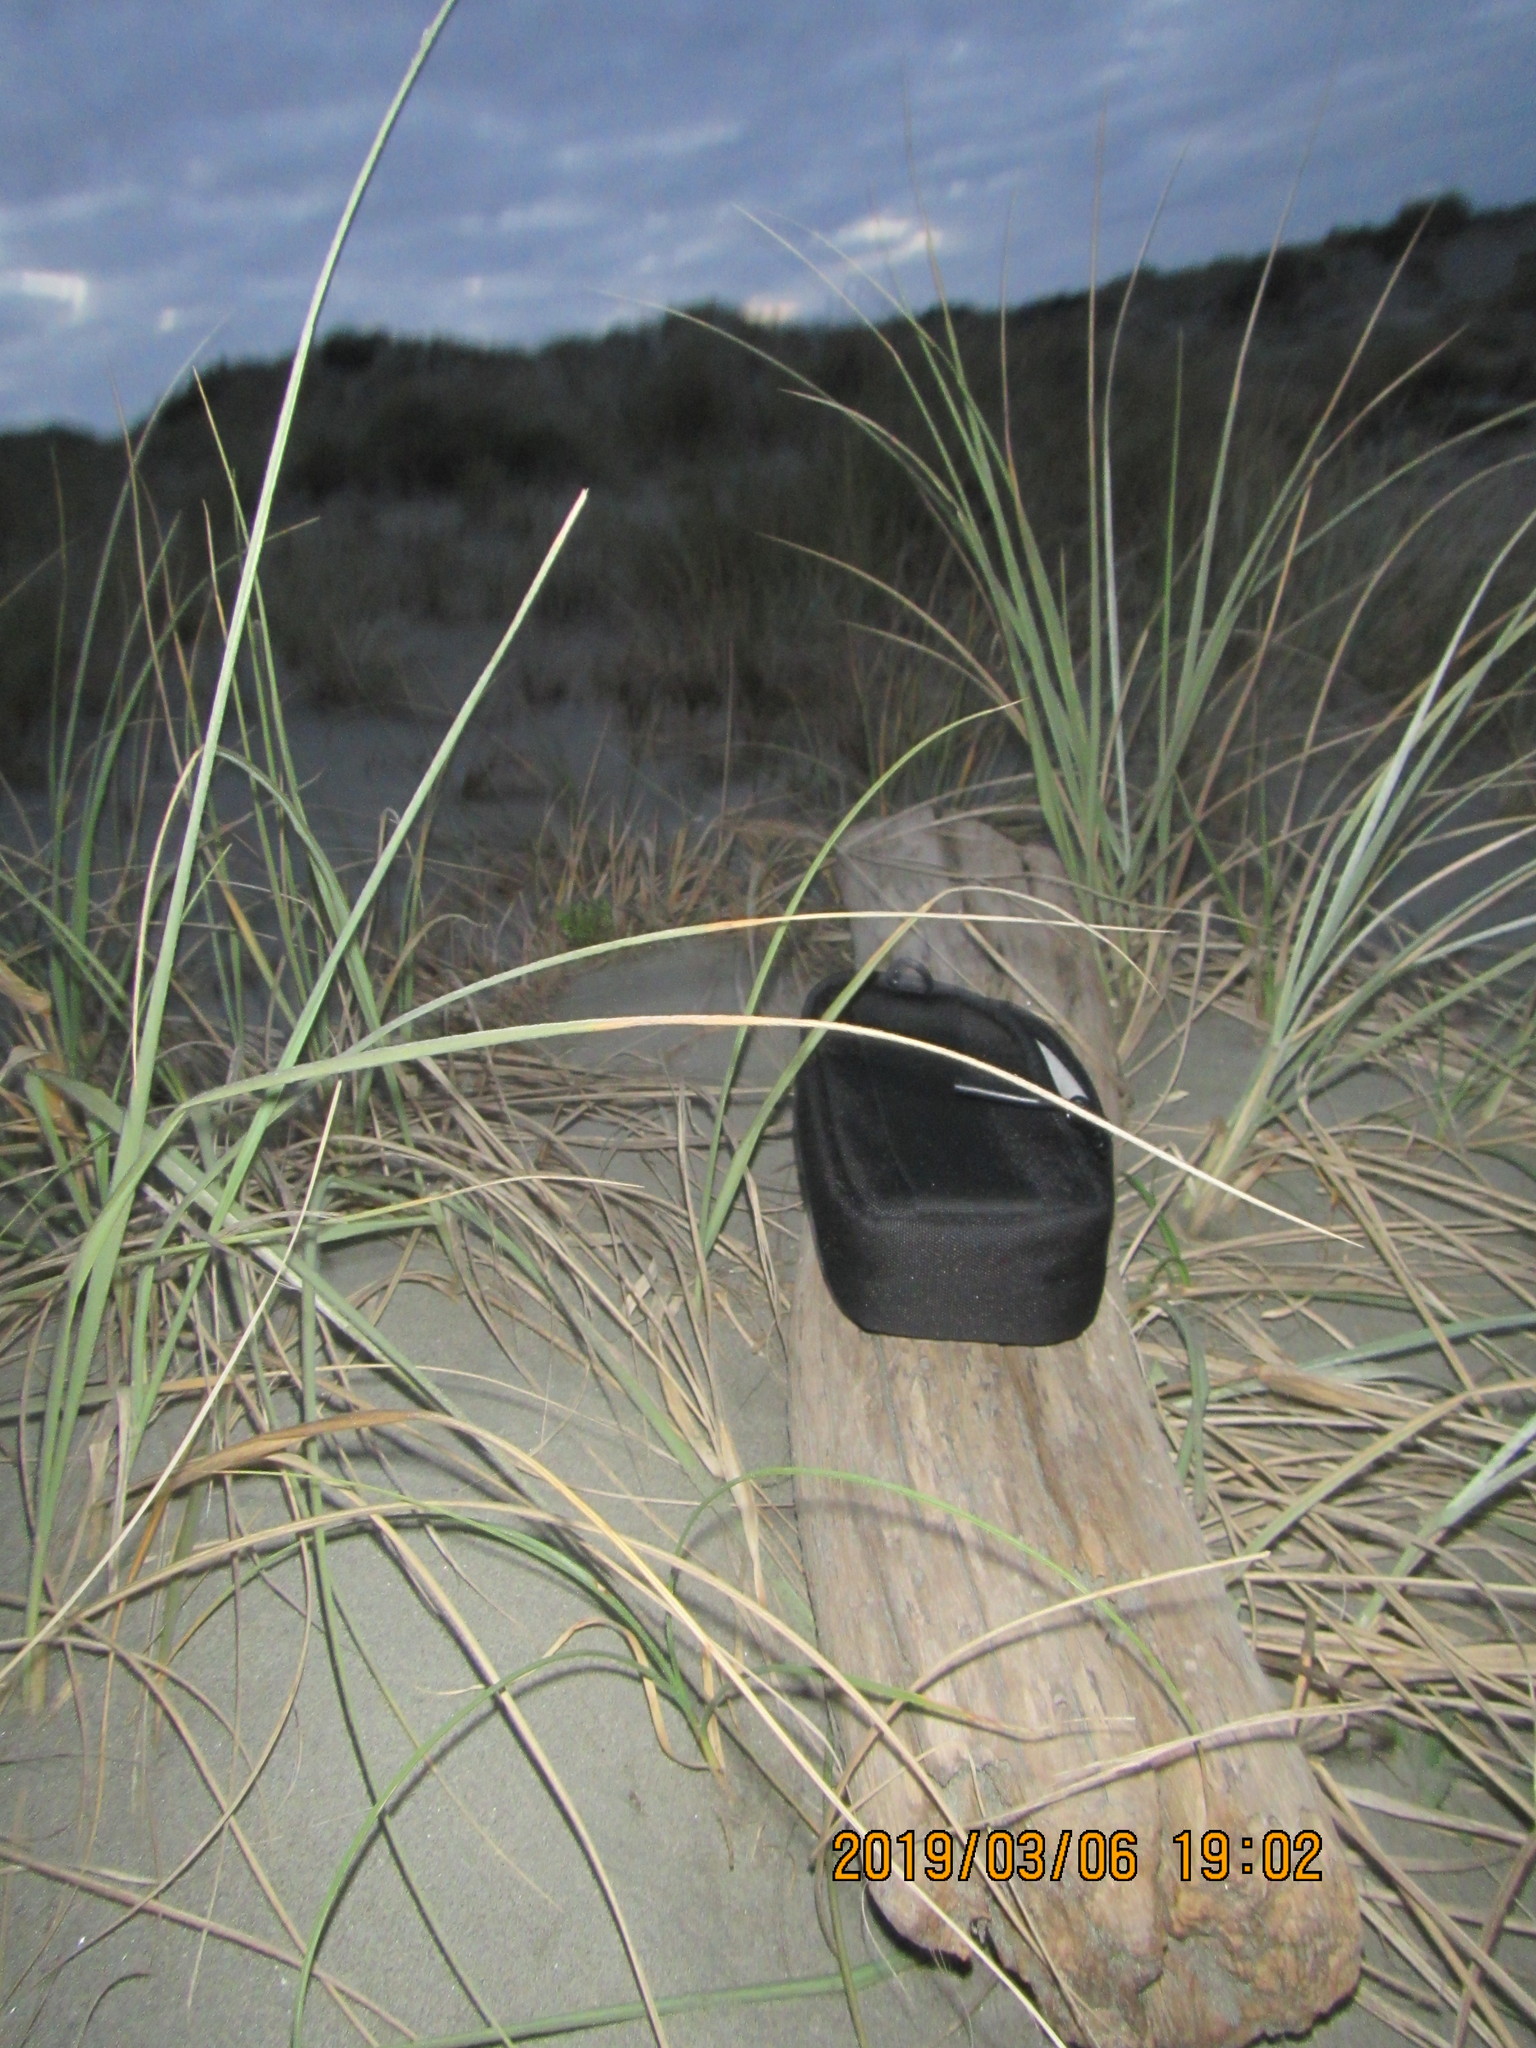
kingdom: Animalia
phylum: Arthropoda
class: Arachnida
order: Araneae
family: Theridiidae
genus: Latrodectus
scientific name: Latrodectus katipo
